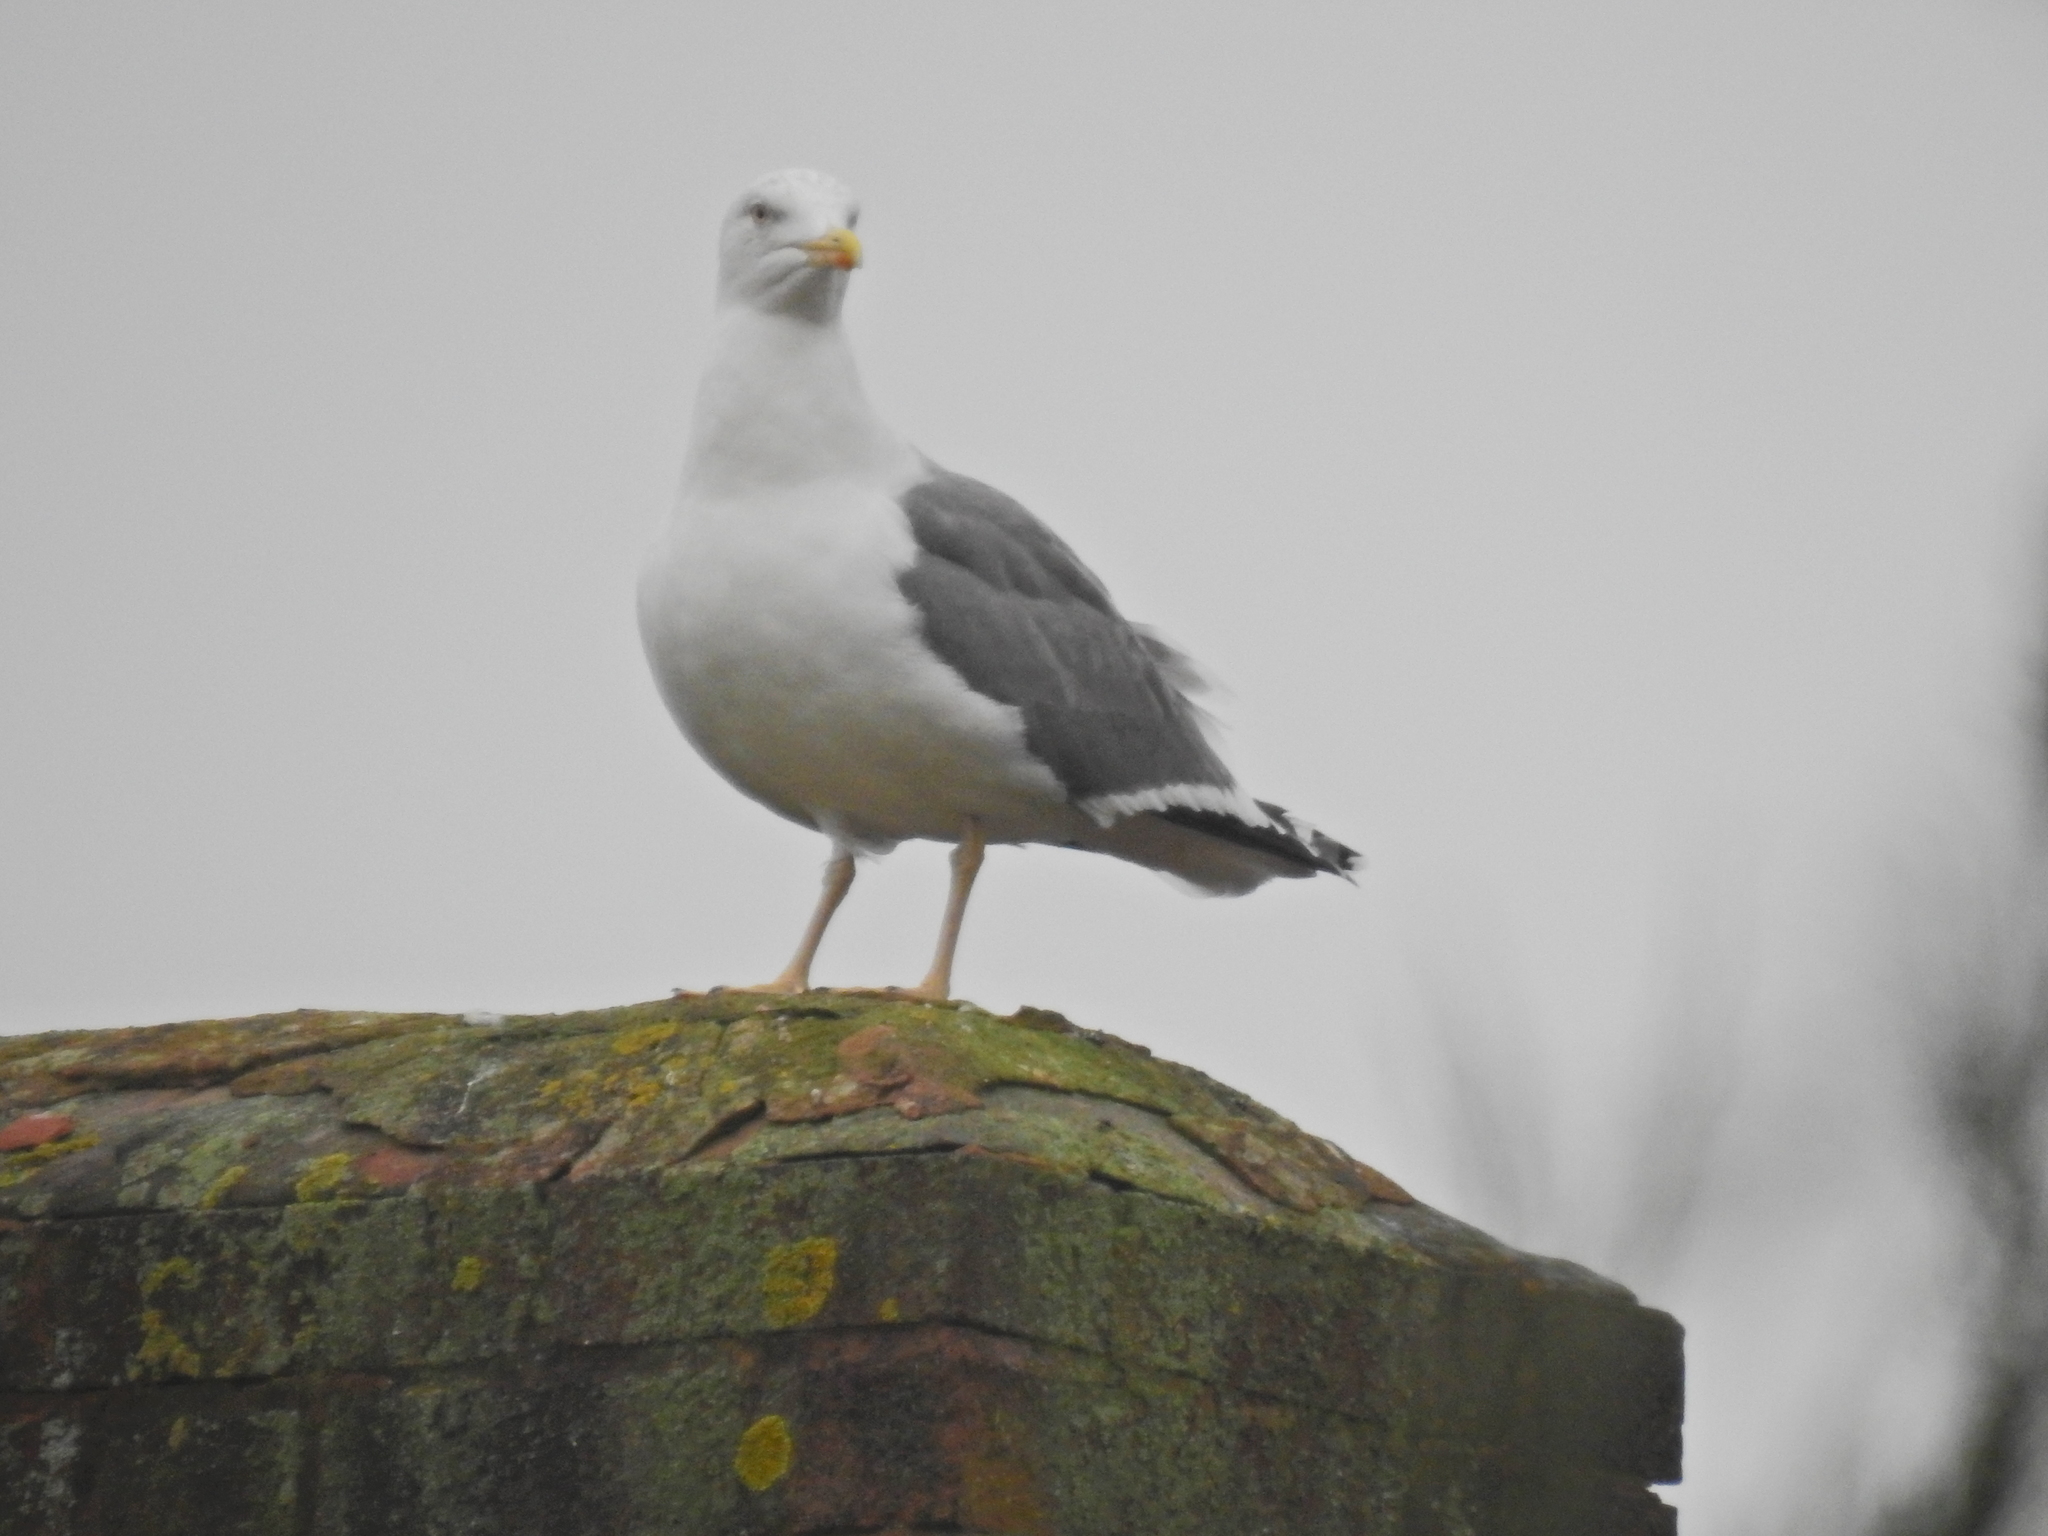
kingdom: Animalia
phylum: Chordata
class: Aves
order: Charadriiformes
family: Laridae
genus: Larus
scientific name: Larus fuscus
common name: Lesser black-backed gull
